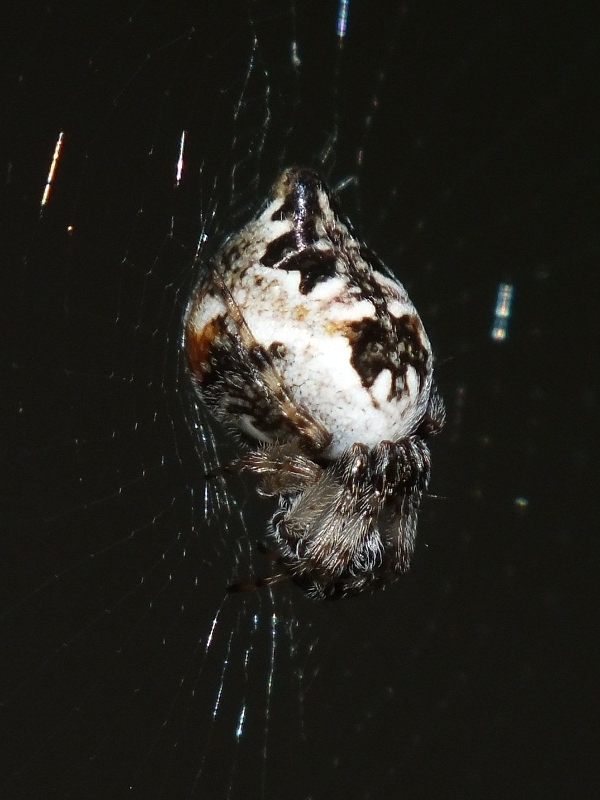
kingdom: Animalia
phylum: Arthropoda
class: Arachnida
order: Araneae
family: Araneidae
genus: Cyclosa
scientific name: Cyclosa conica
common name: Conical trashline orbweaver
